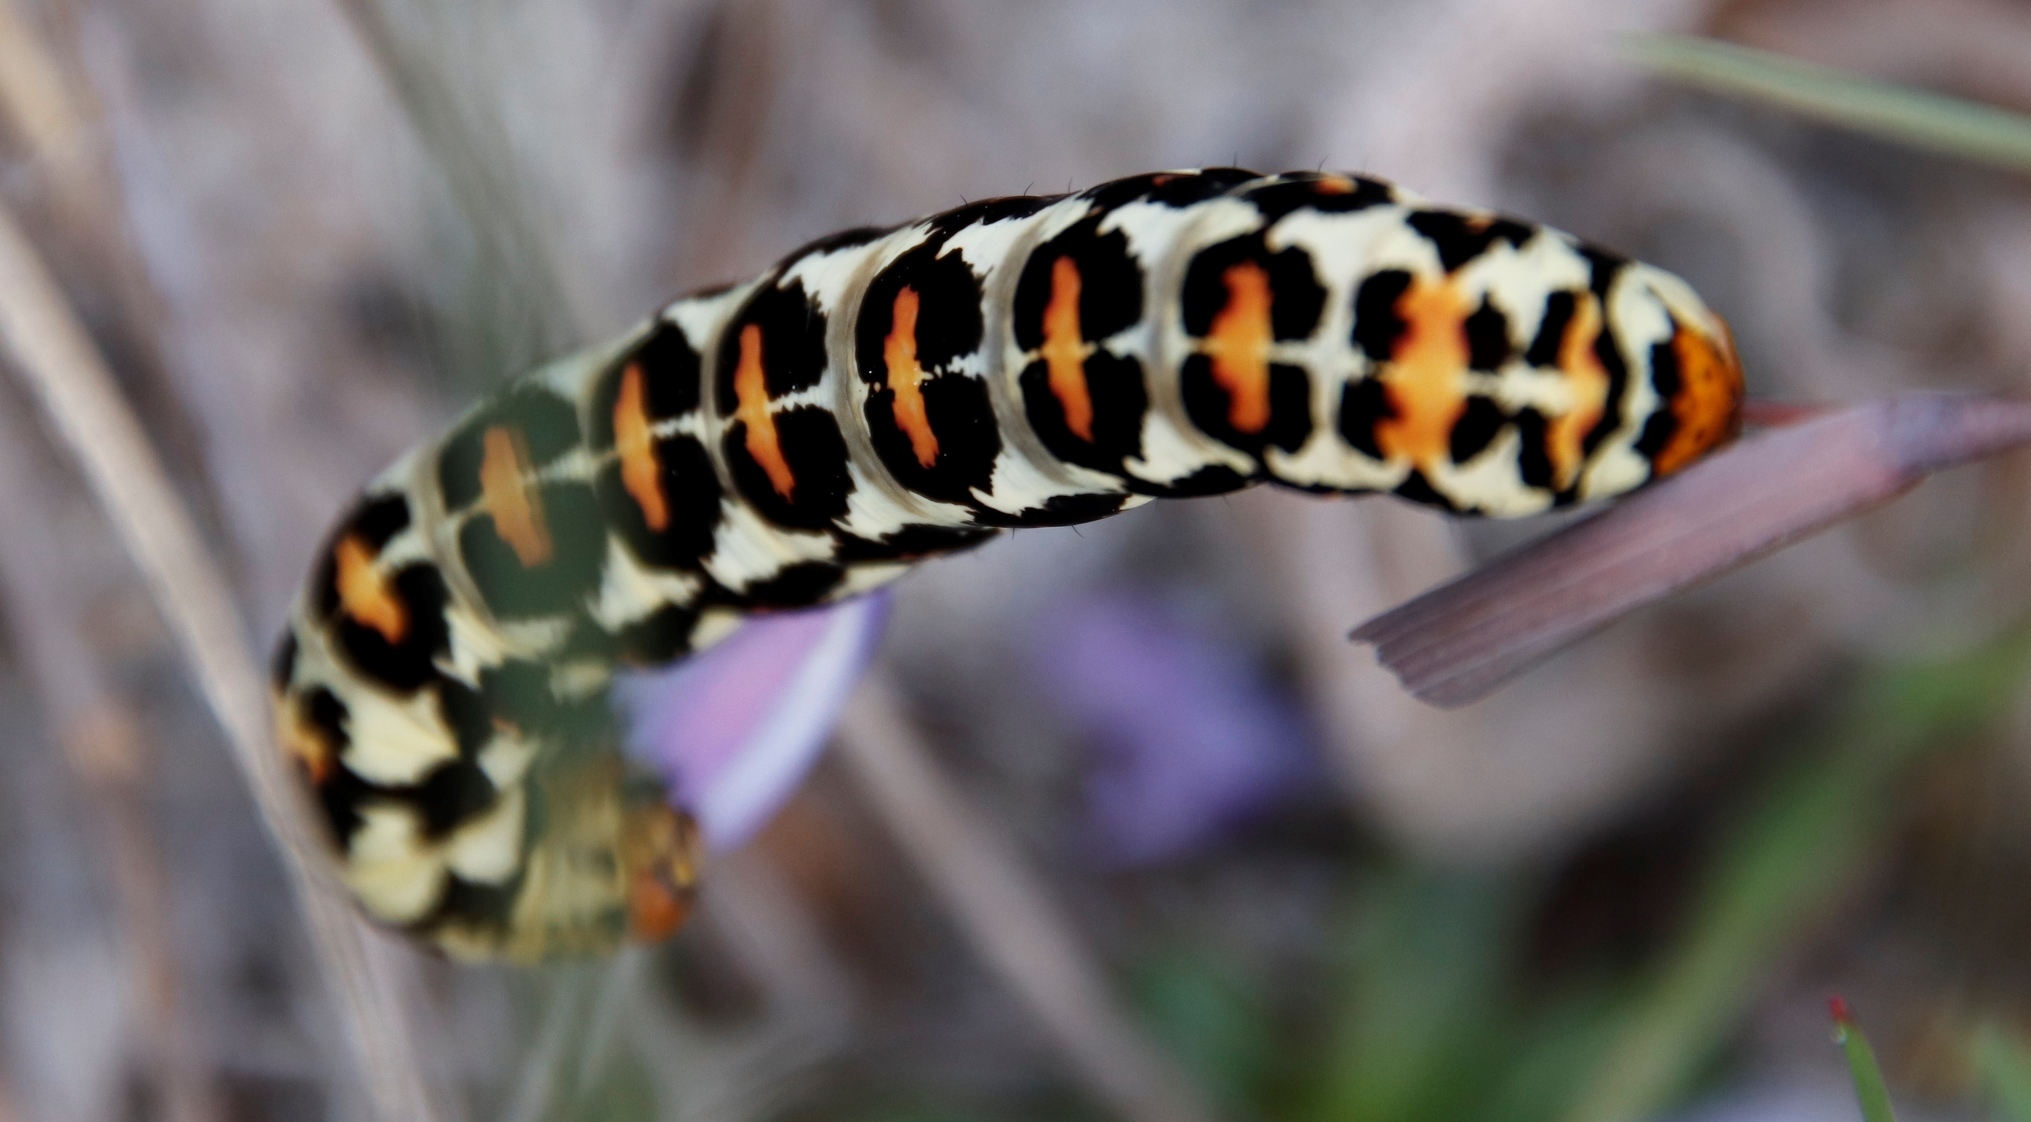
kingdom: Animalia
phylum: Arthropoda
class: Insecta
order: Lepidoptera
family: Noctuidae
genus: Diaphone
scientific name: Diaphone eumela
